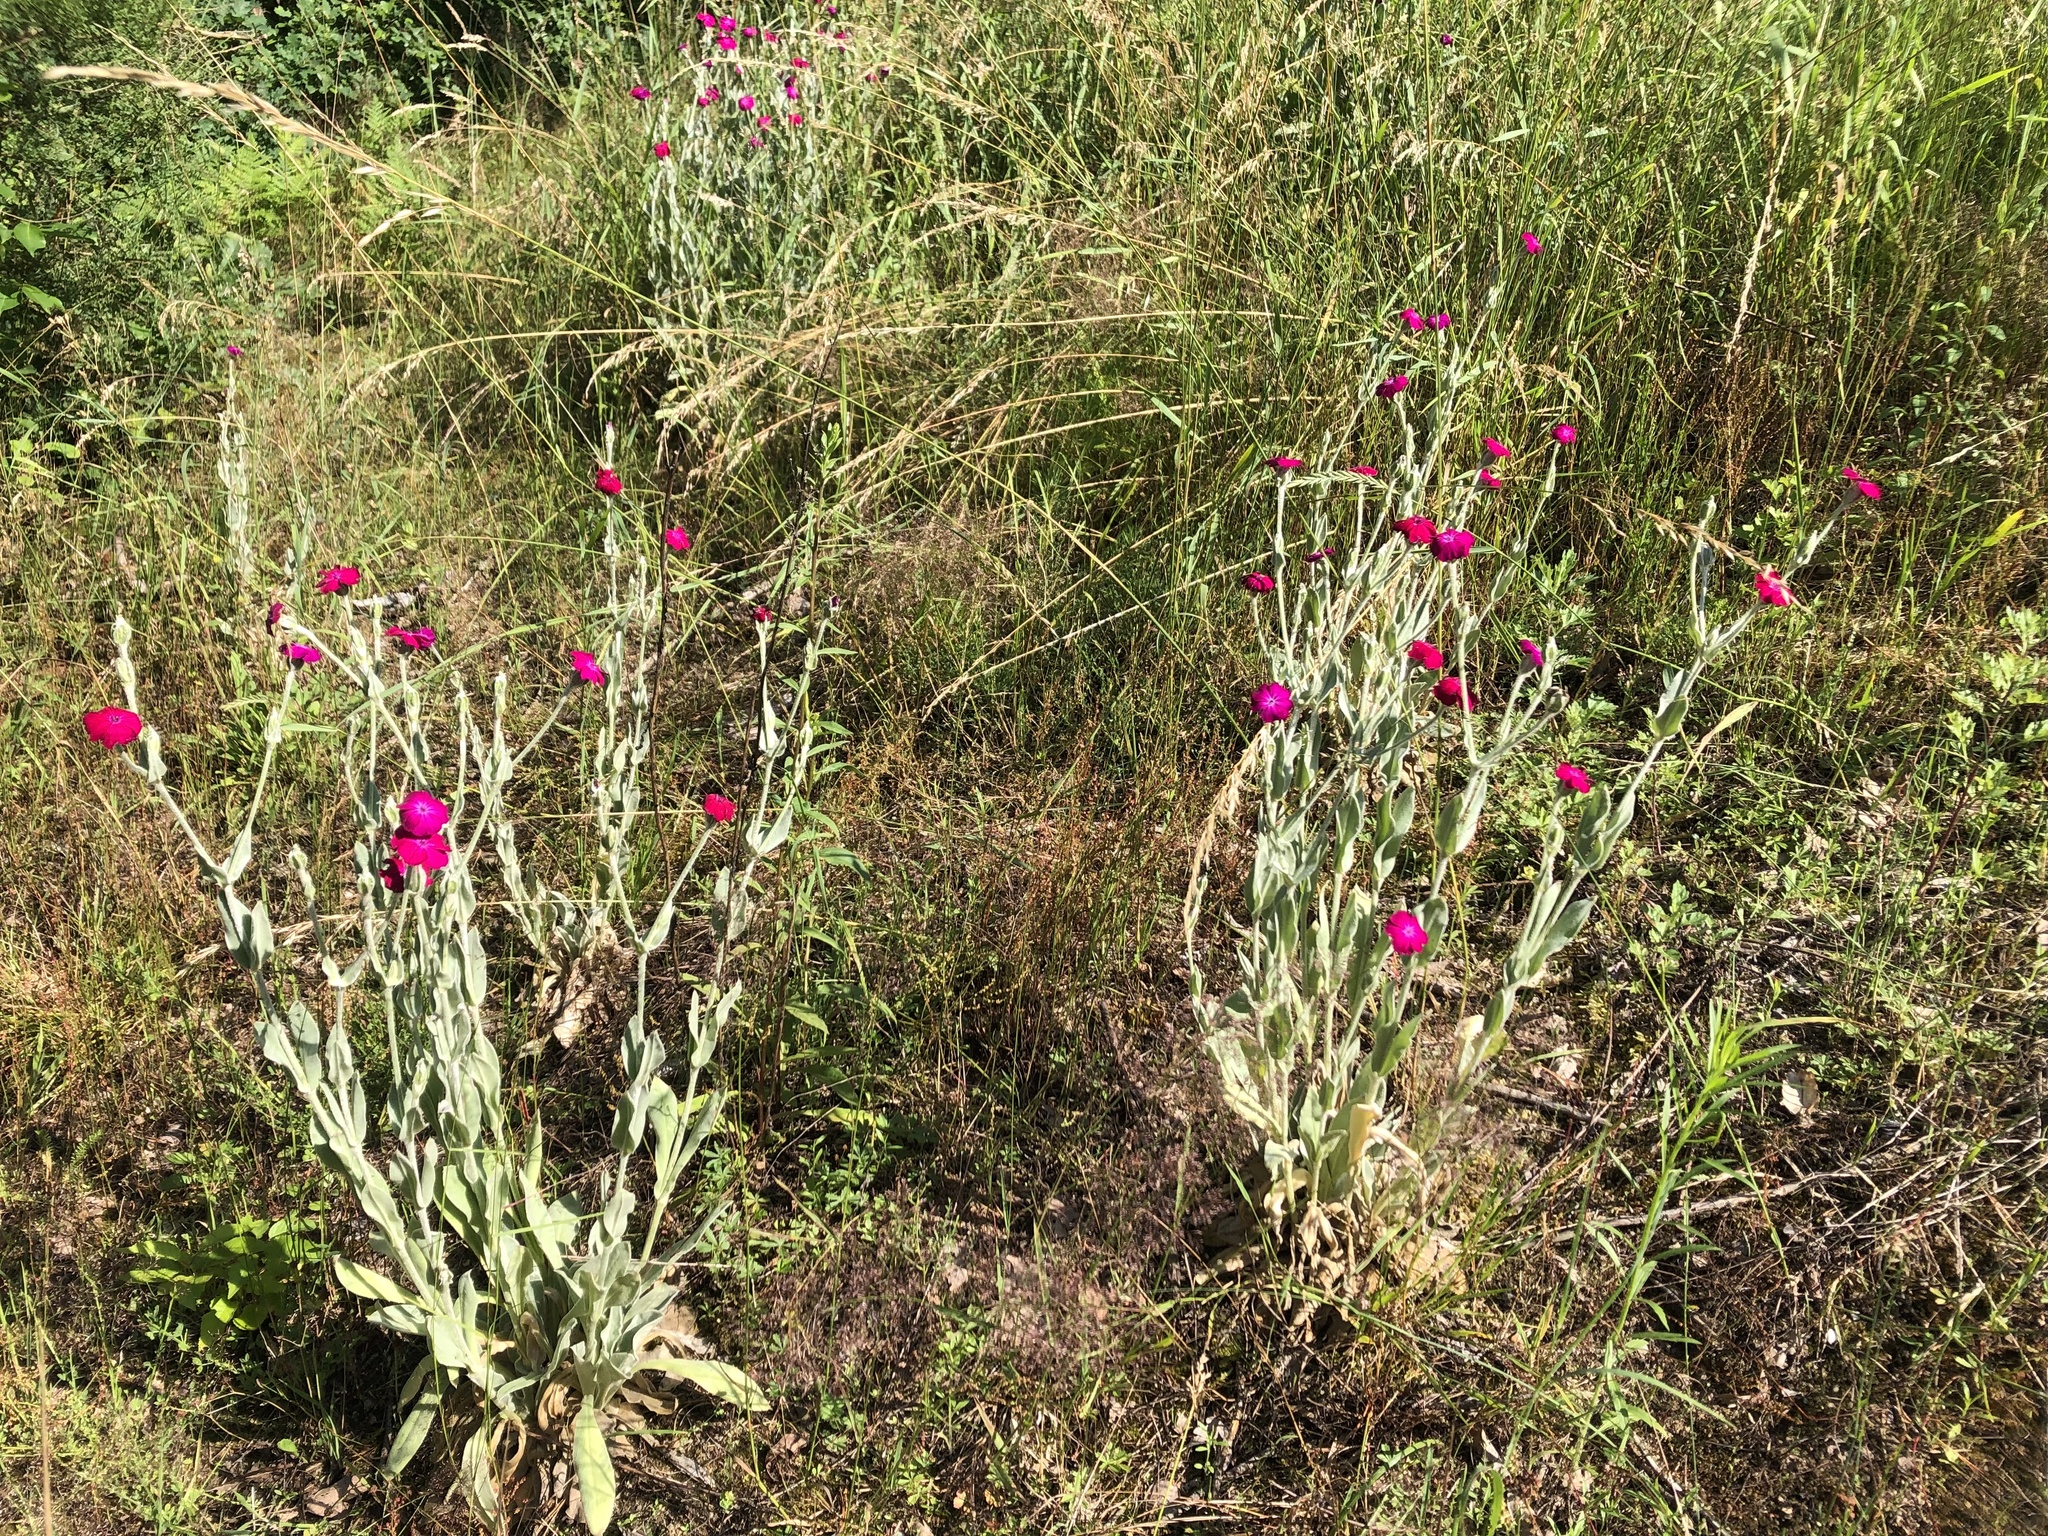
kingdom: Plantae
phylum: Tracheophyta
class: Magnoliopsida
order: Caryophyllales
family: Caryophyllaceae
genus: Silene
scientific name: Silene coronaria
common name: Rose campion
